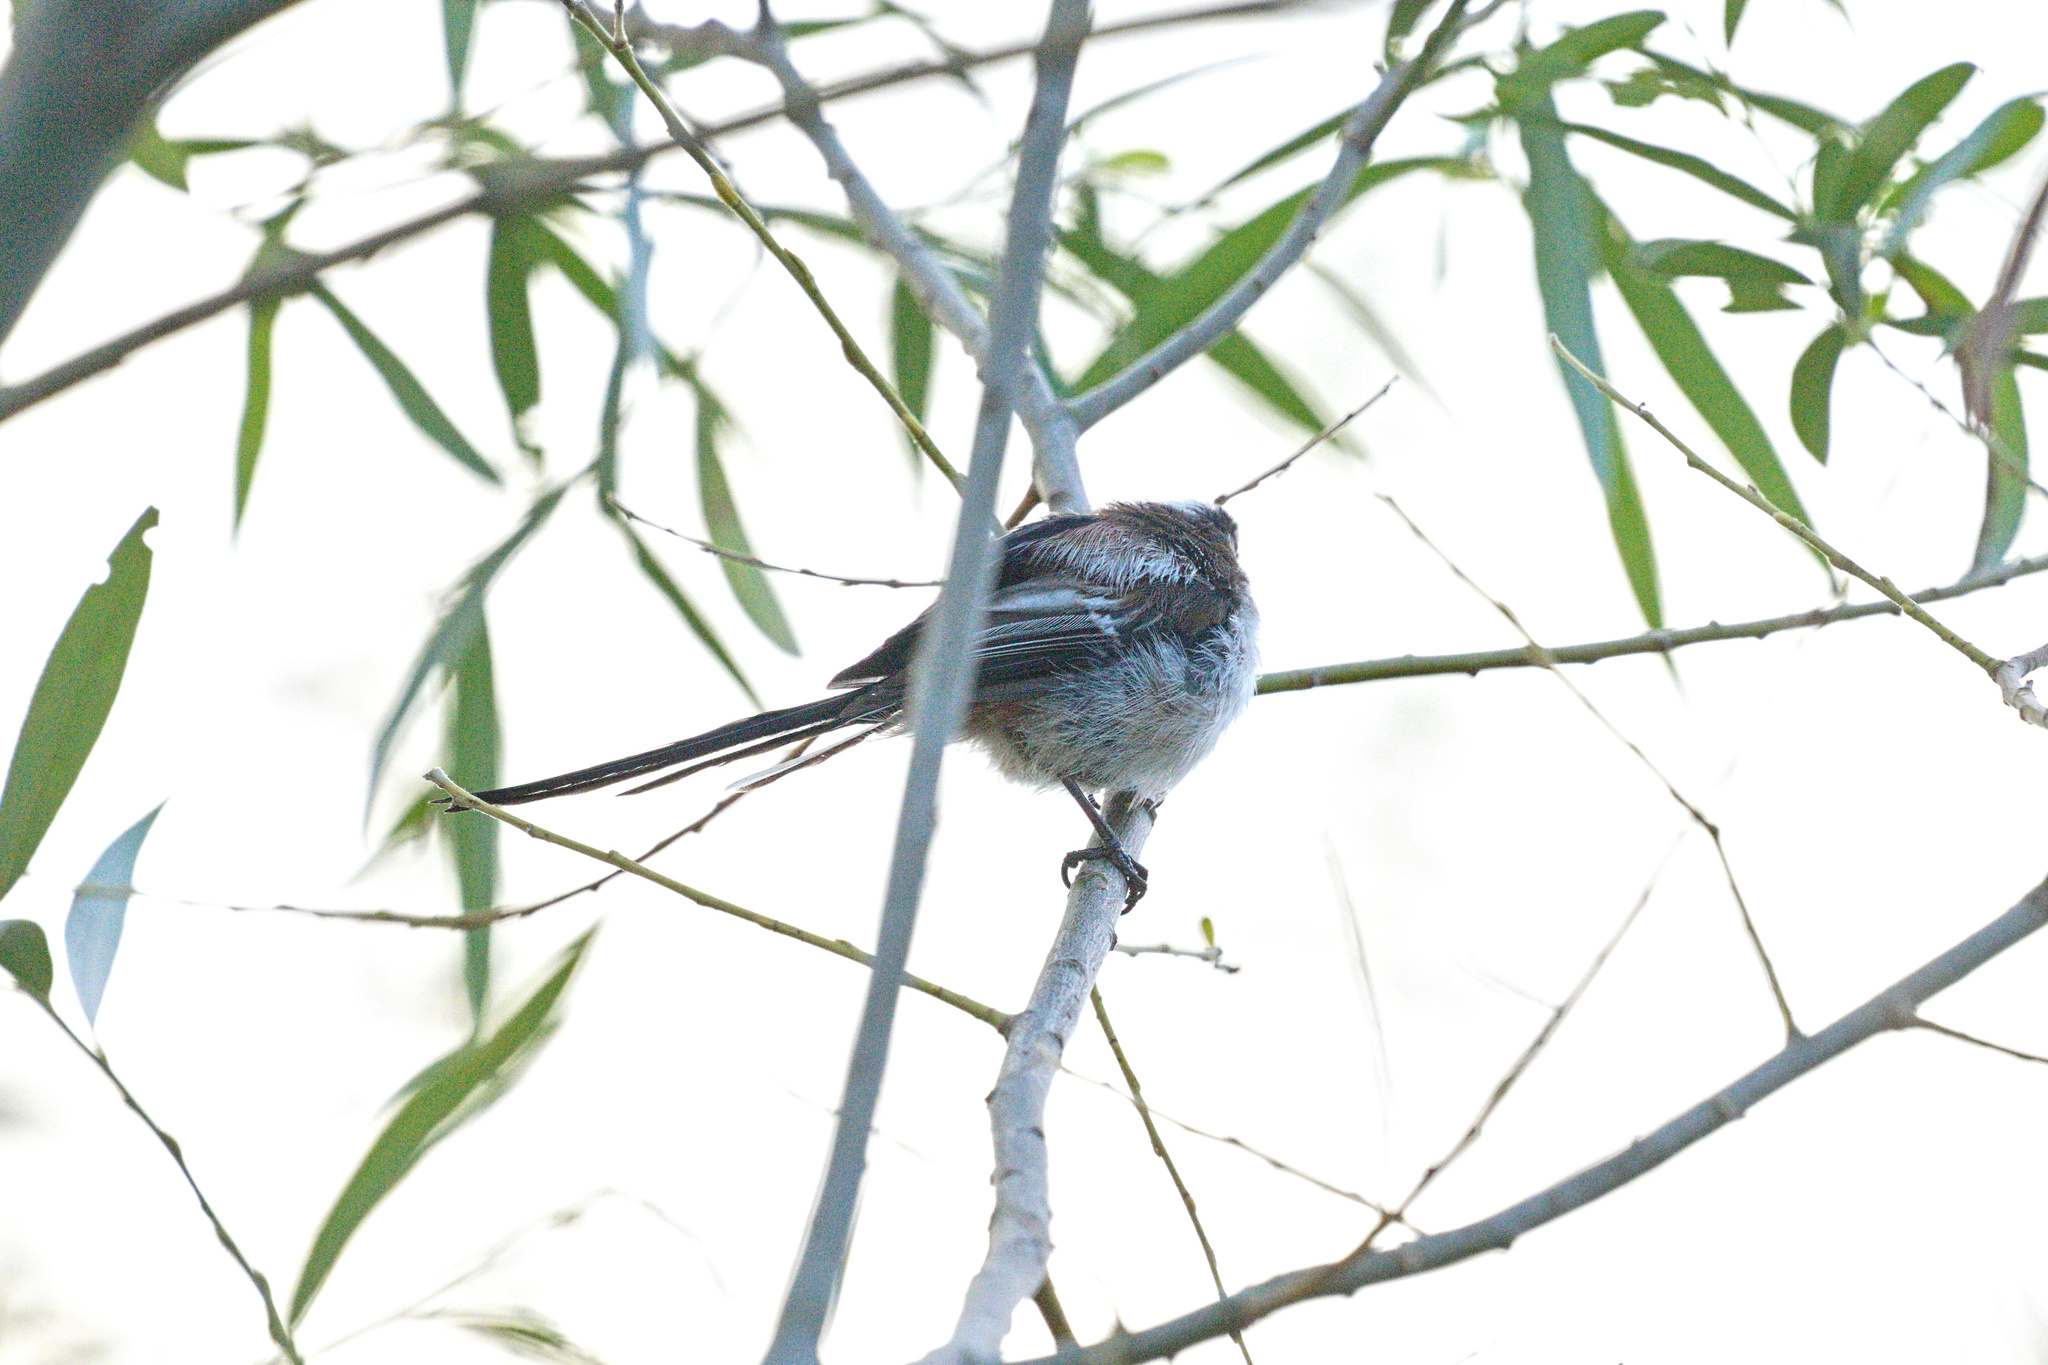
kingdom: Animalia
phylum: Chordata
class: Aves
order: Passeriformes
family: Aegithalidae
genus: Aegithalos
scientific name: Aegithalos caudatus
